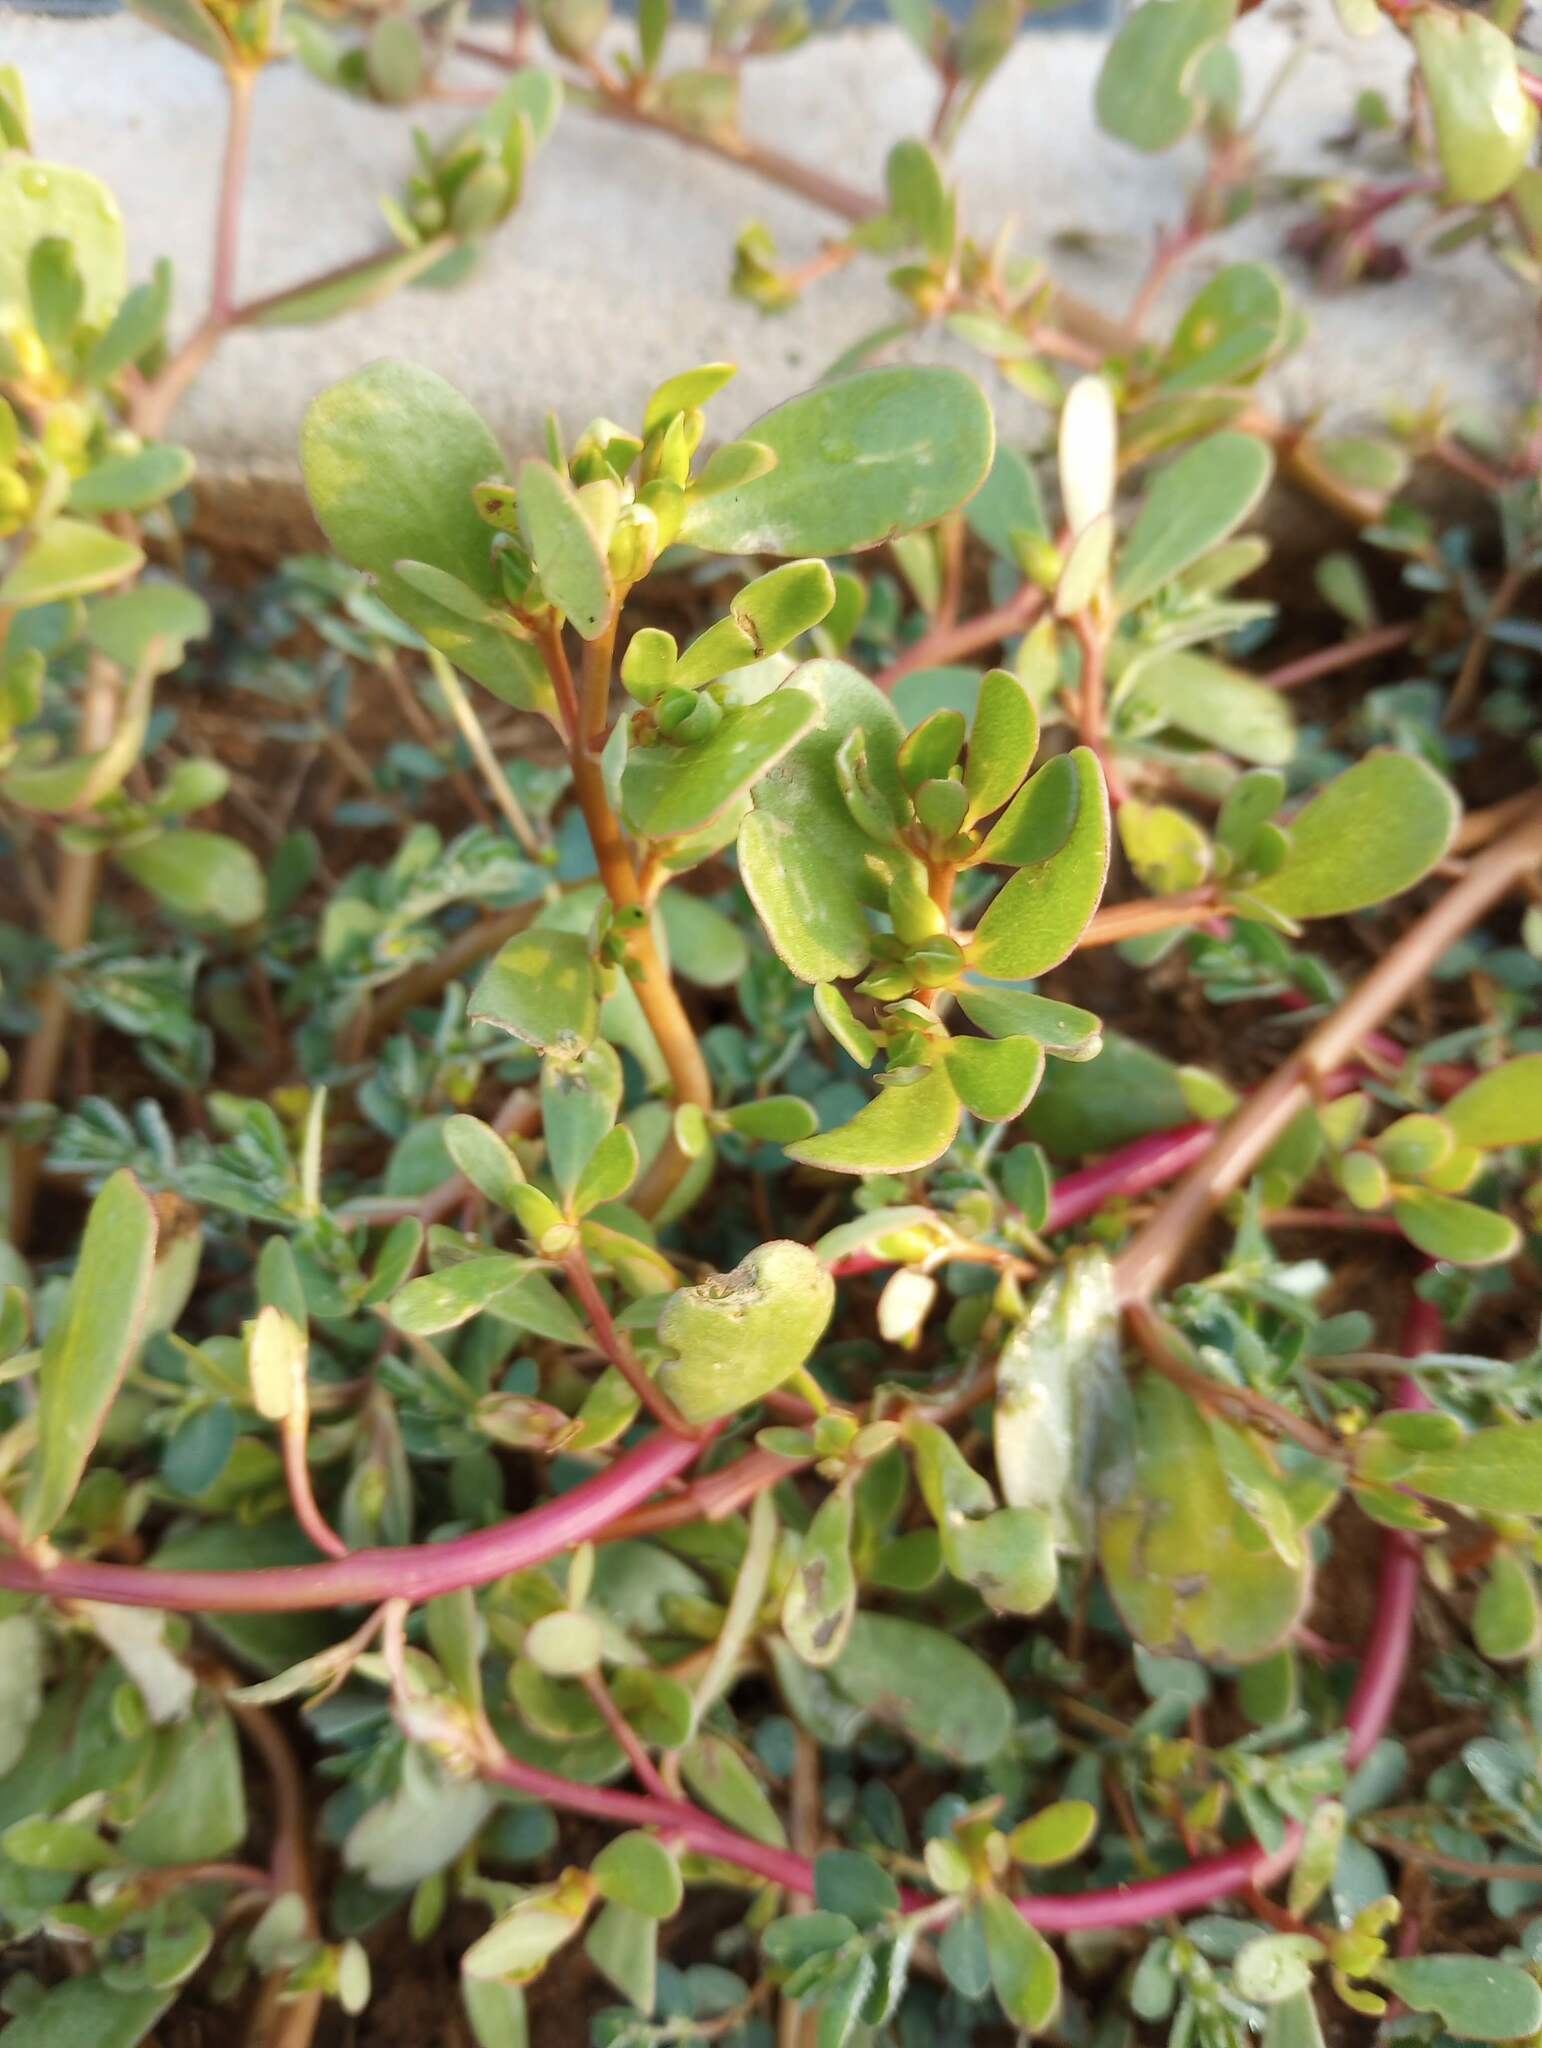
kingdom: Plantae
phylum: Tracheophyta
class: Magnoliopsida
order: Caryophyllales
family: Portulacaceae
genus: Portulaca
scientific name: Portulaca oleracea
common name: Common purslane
